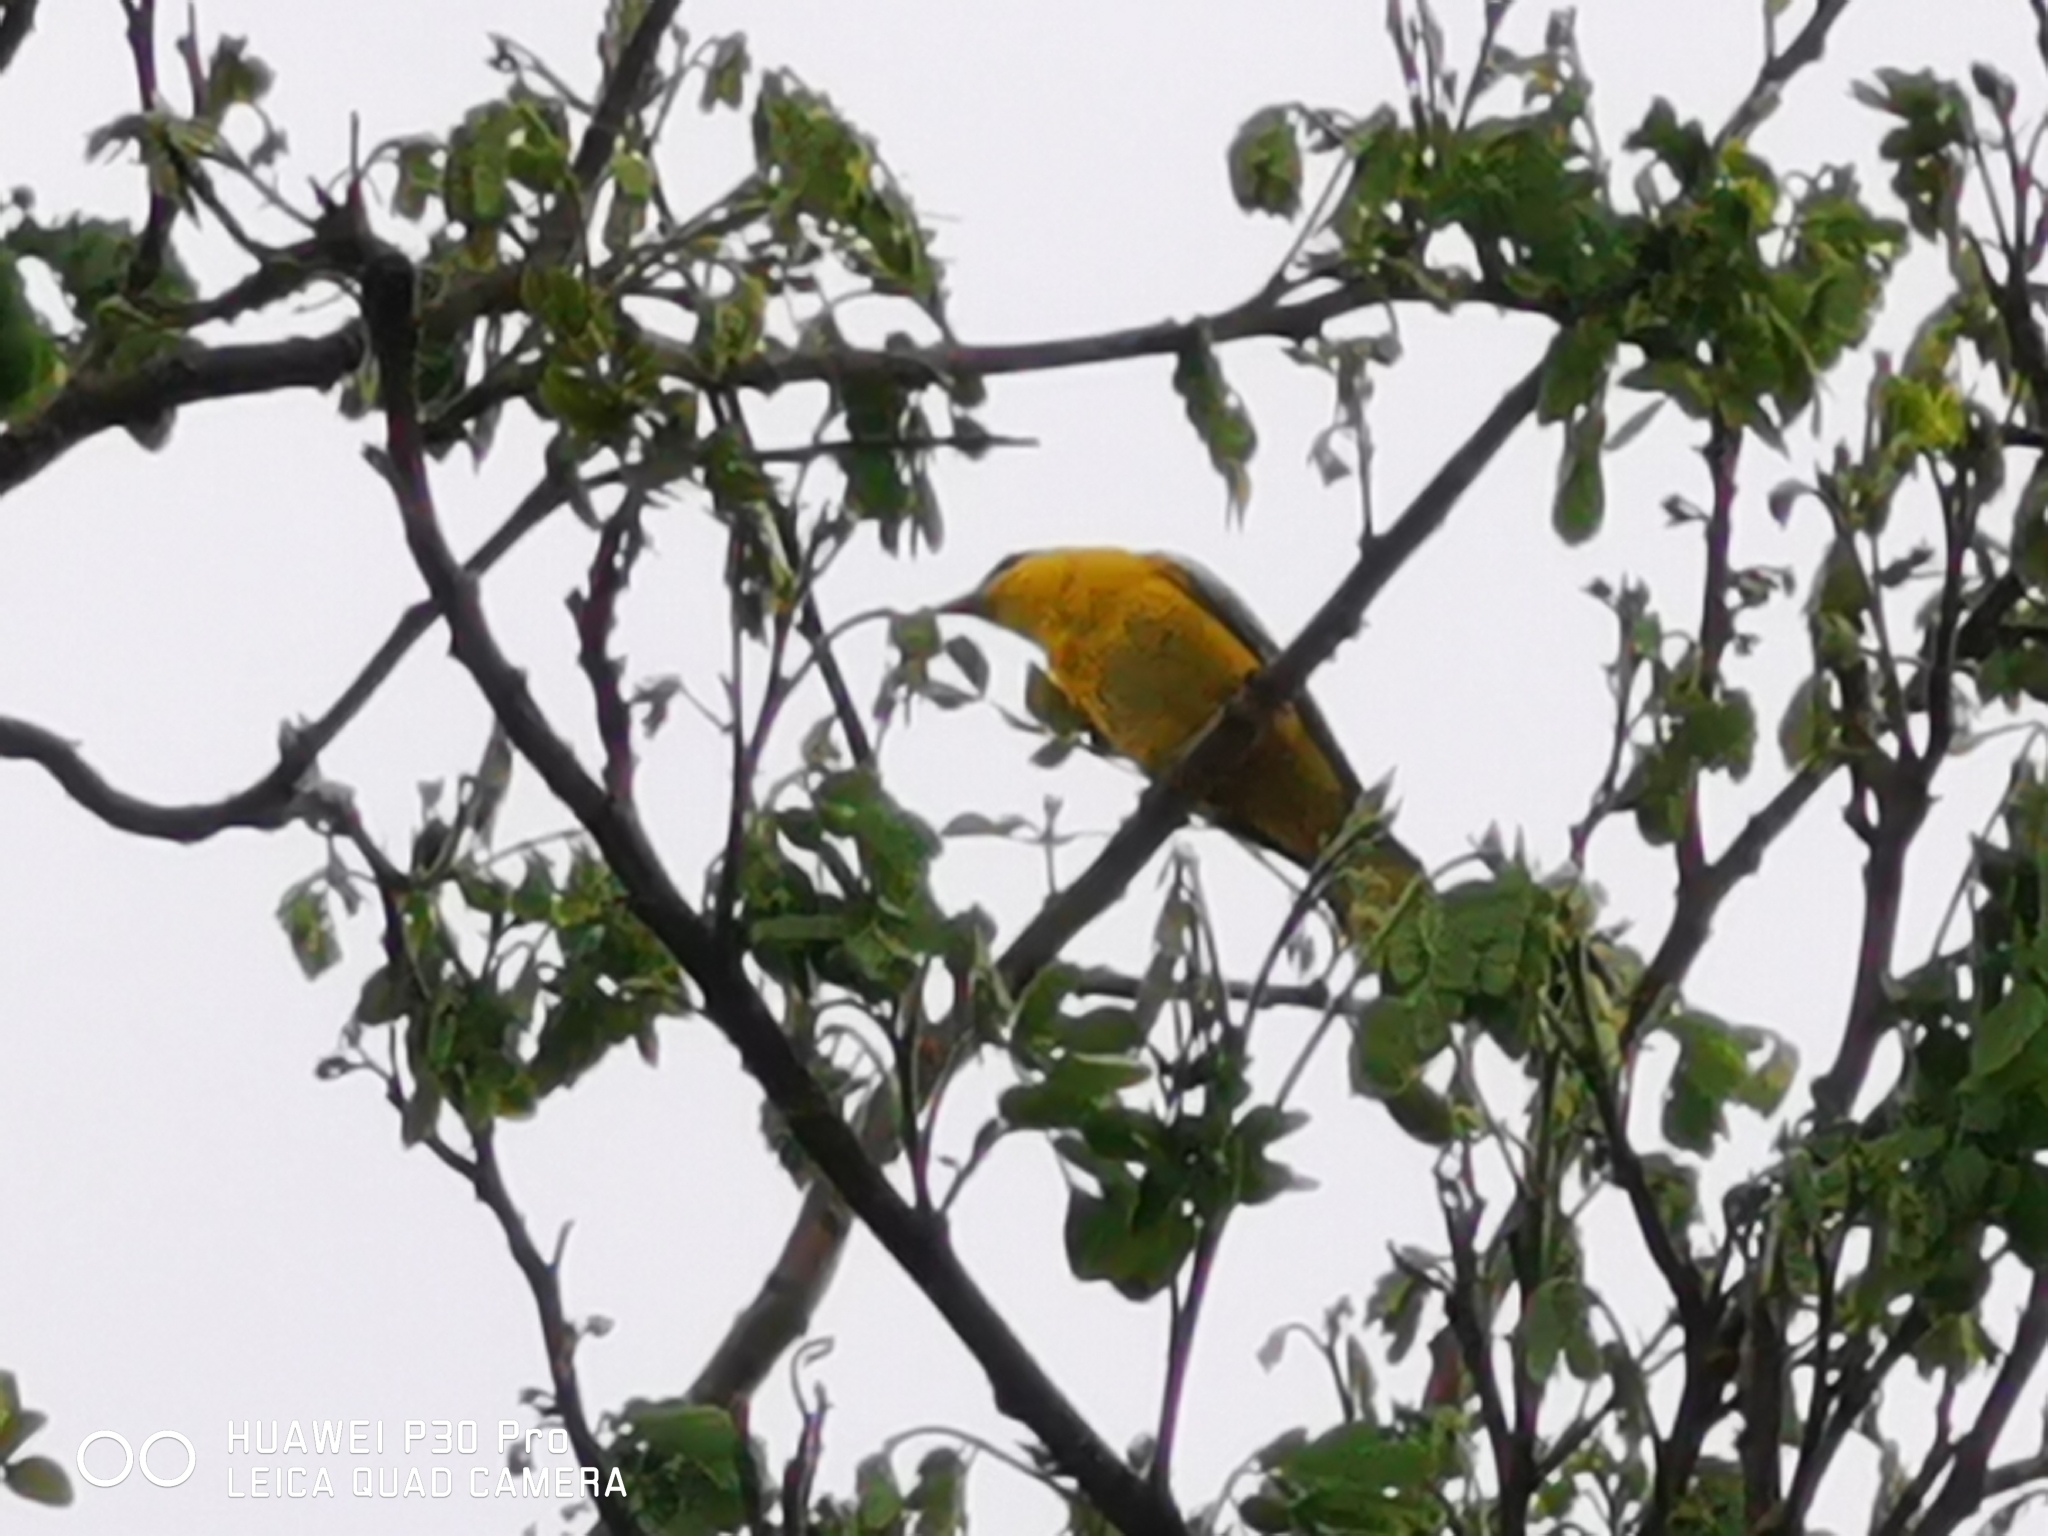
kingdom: Animalia
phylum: Chordata
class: Aves
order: Passeriformes
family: Oriolidae
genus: Oriolus
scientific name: Oriolus chinensis
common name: Black-naped oriole
